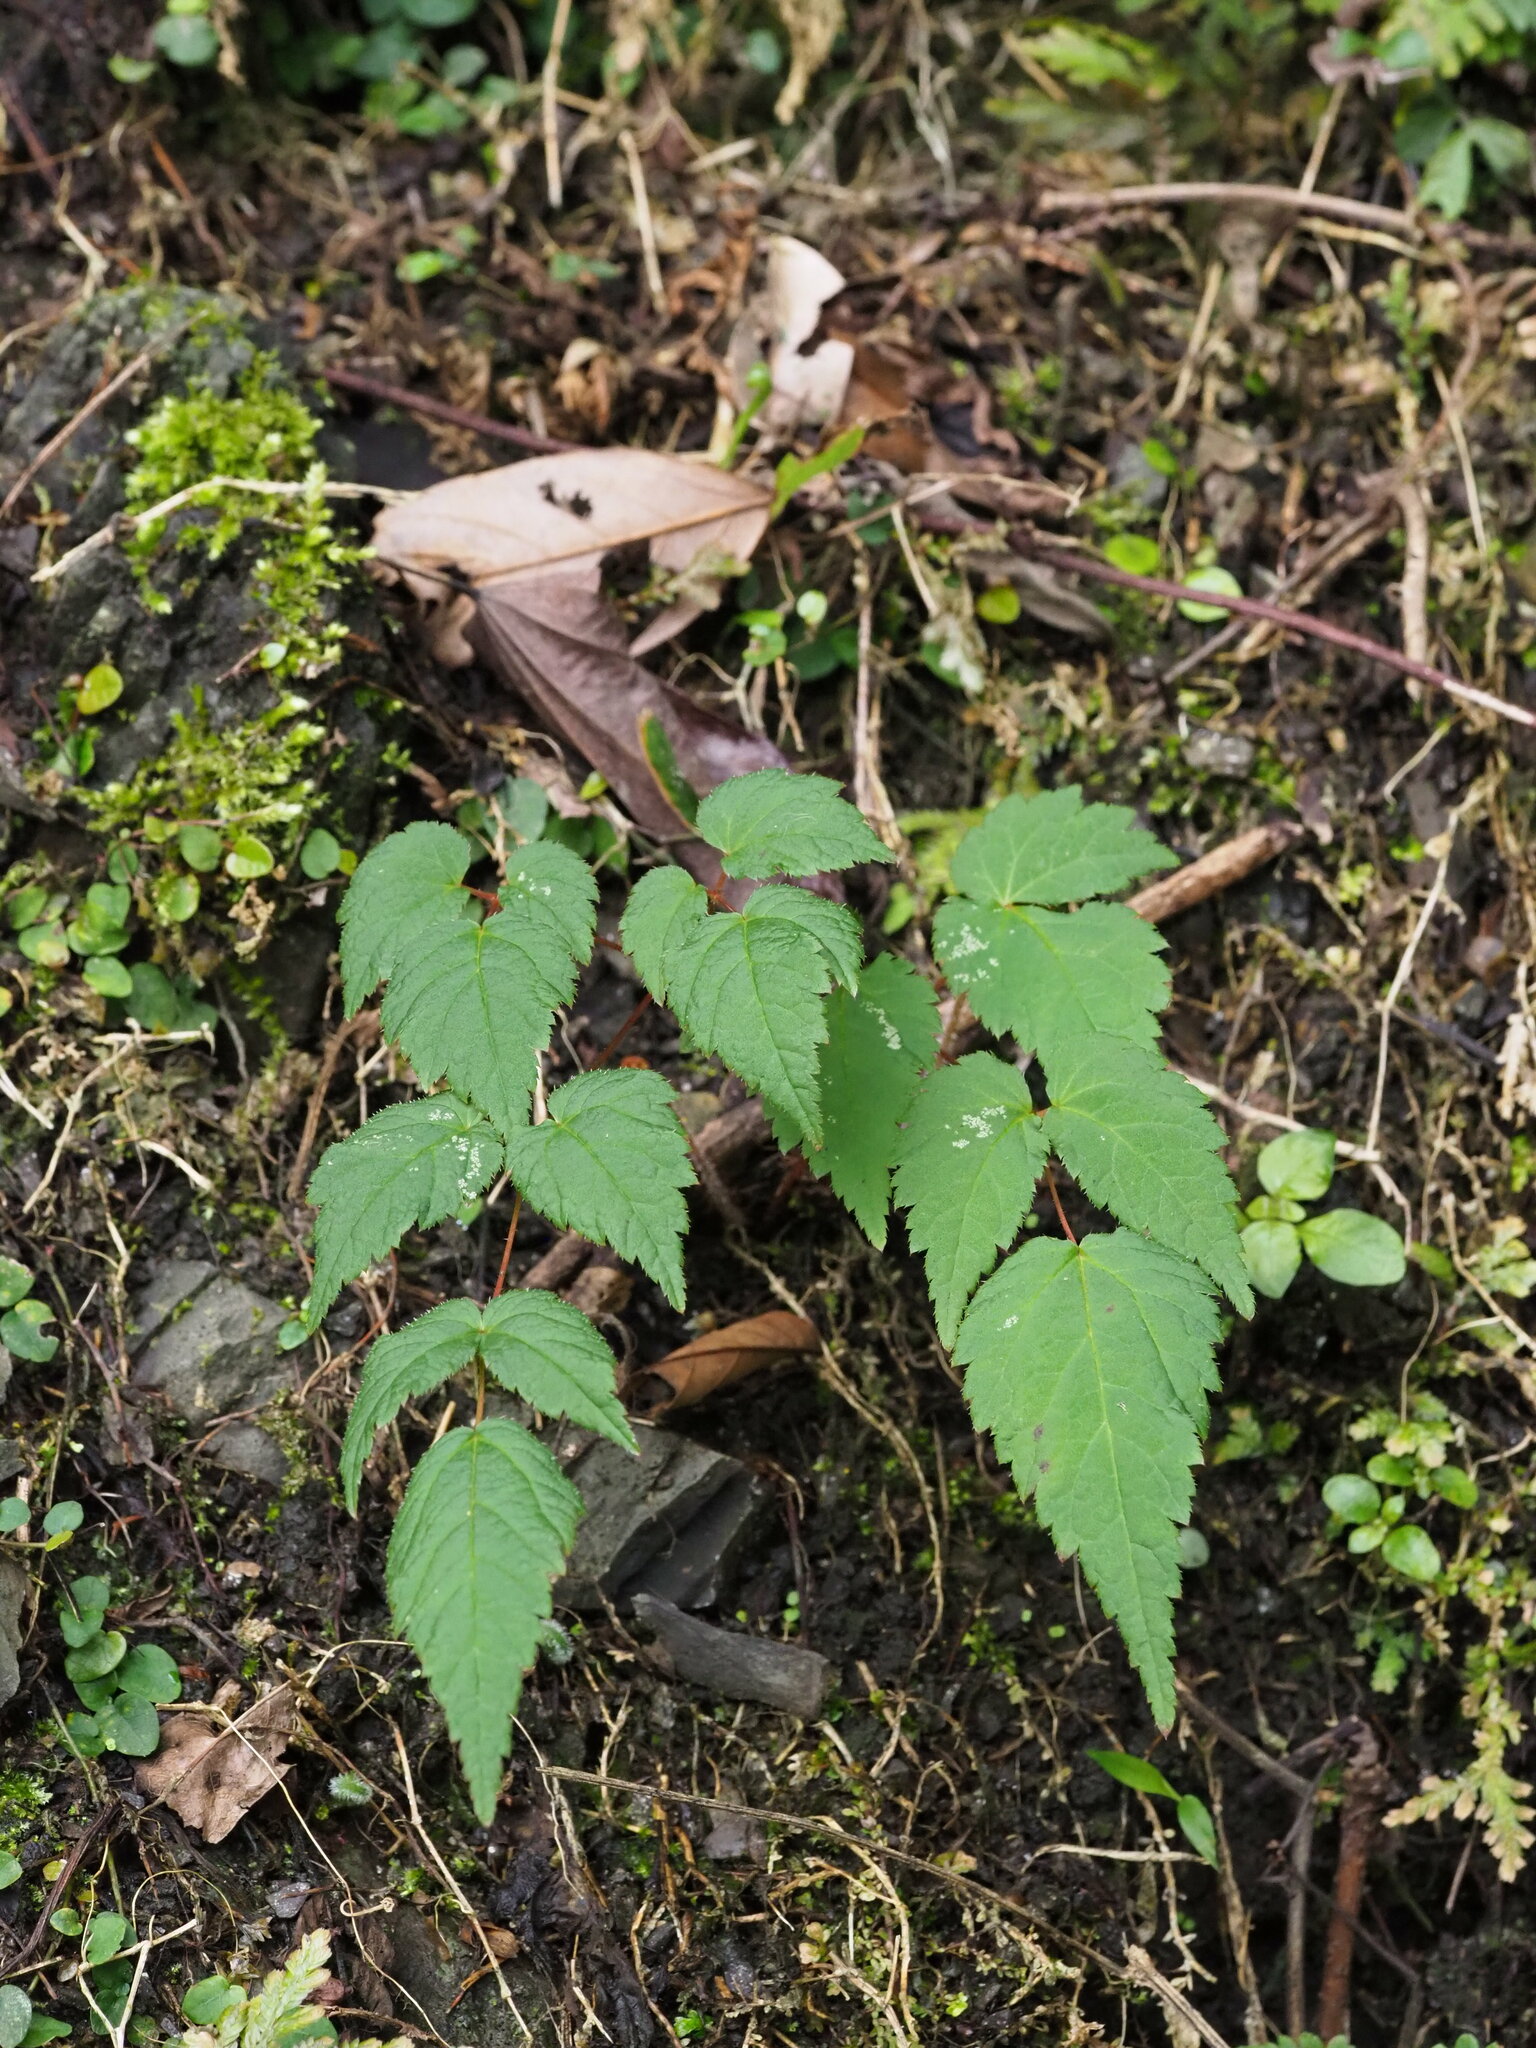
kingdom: Plantae
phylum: Tracheophyta
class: Magnoliopsida
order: Saxifragales
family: Saxifragaceae
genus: Astilbe
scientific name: Astilbe longicarpa
